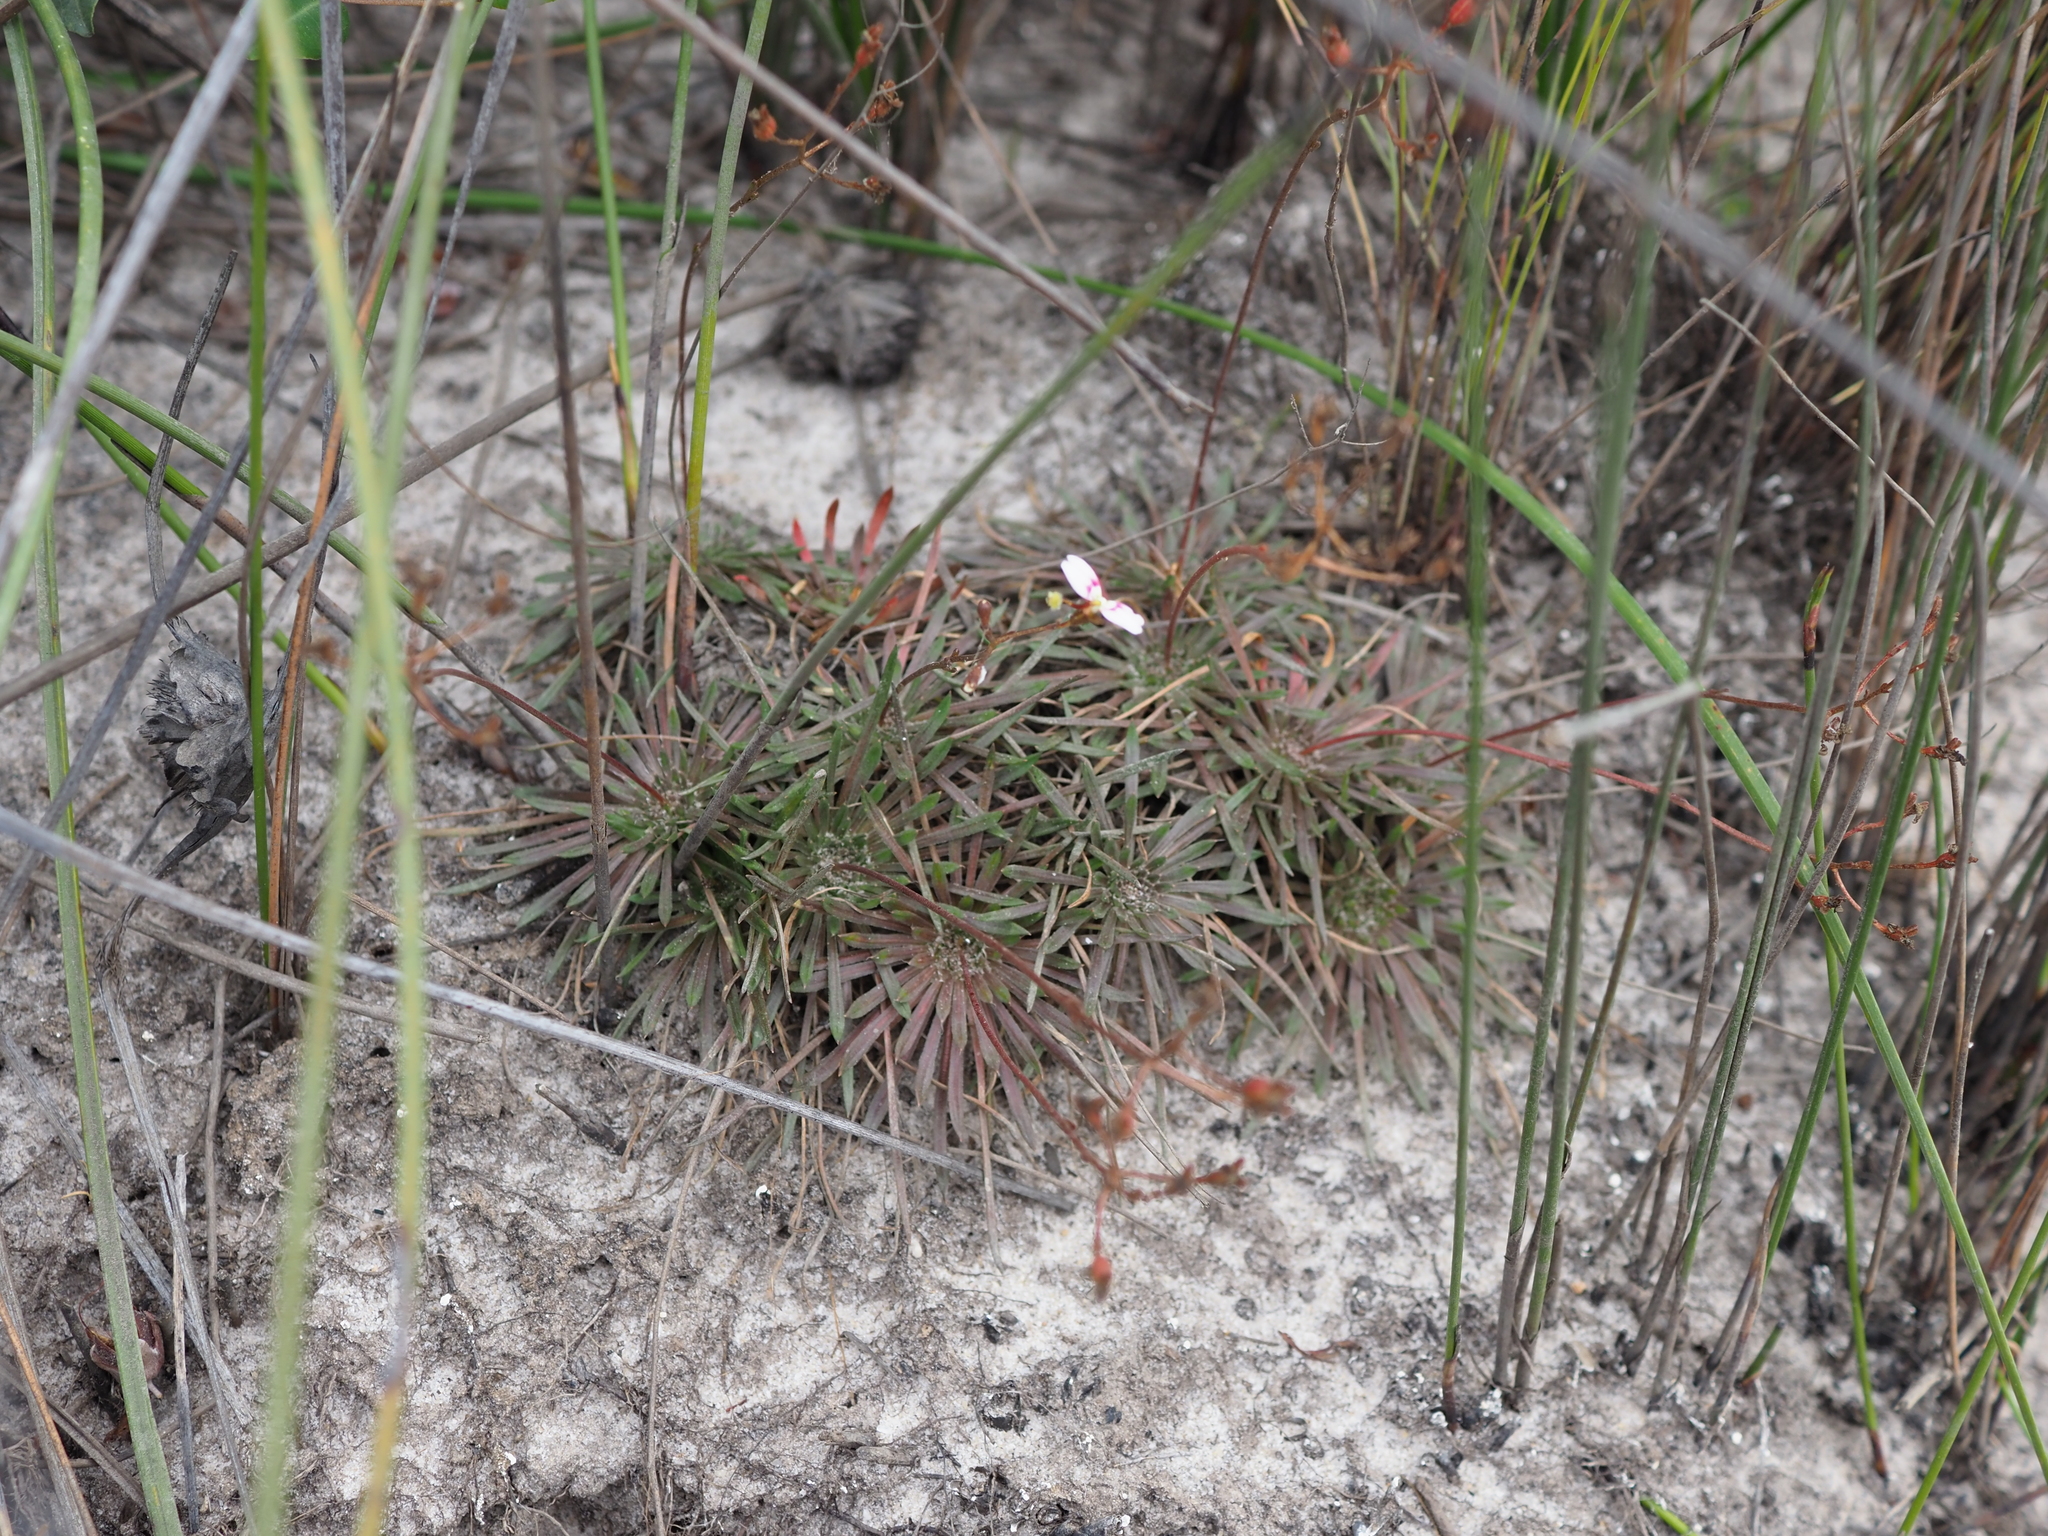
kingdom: Plantae
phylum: Tracheophyta
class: Magnoliopsida
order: Asterales
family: Stylidiaceae
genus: Stylidium
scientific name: Stylidium caespitosum
